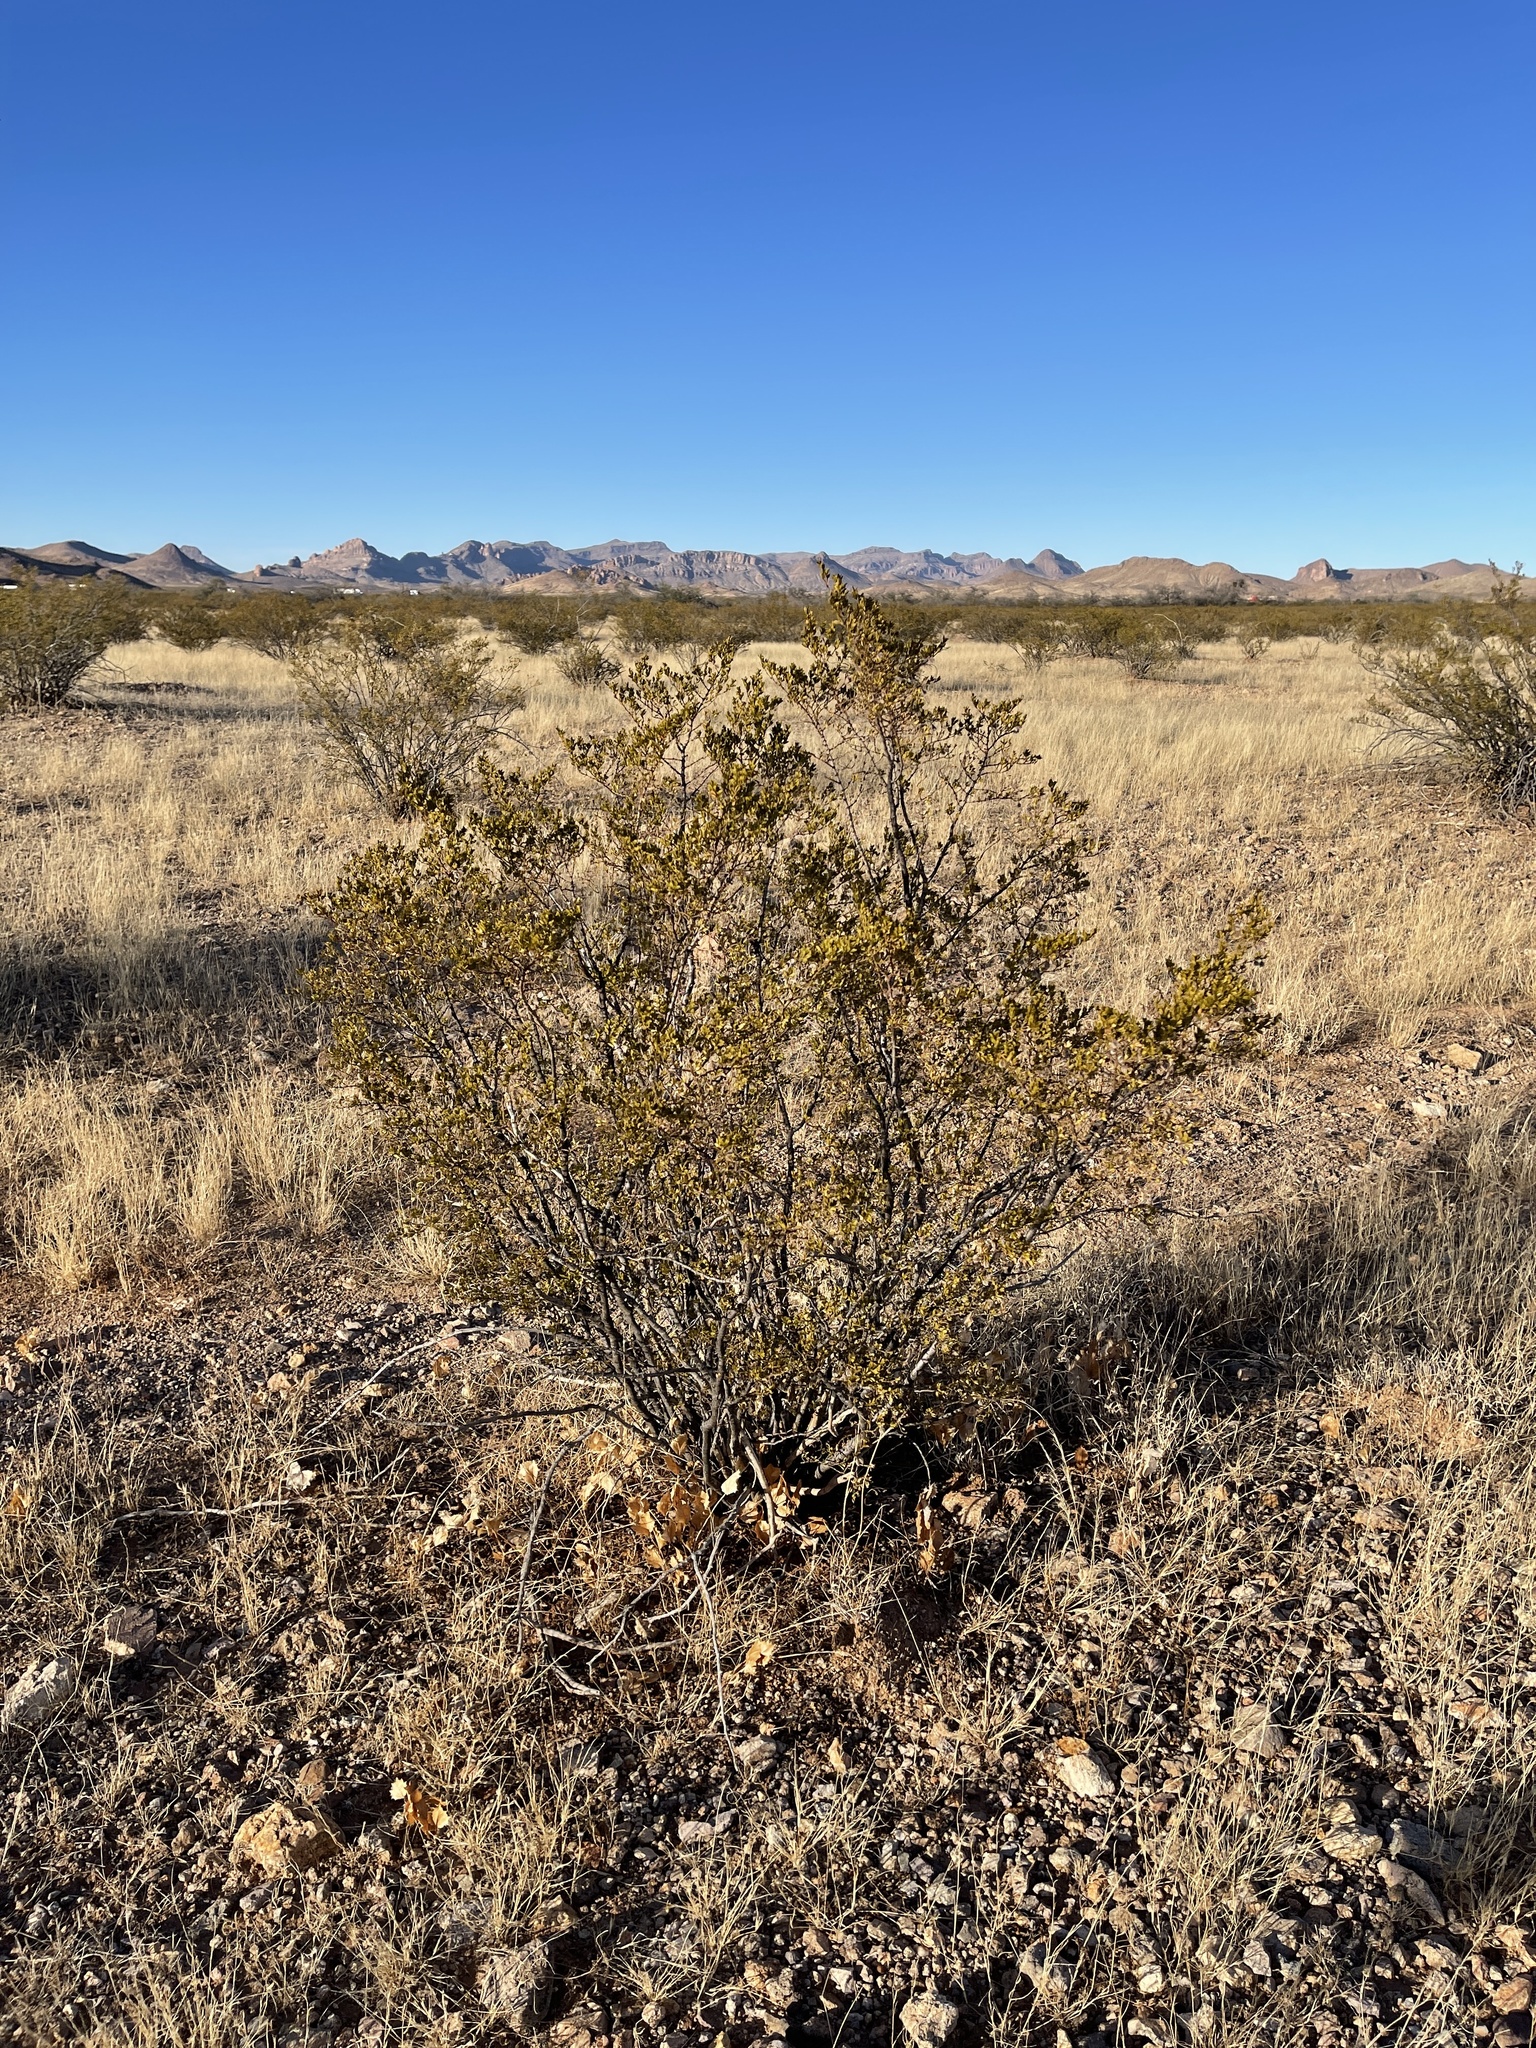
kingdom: Plantae
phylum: Tracheophyta
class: Magnoliopsida
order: Zygophyllales
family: Zygophyllaceae
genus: Larrea
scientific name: Larrea tridentata
